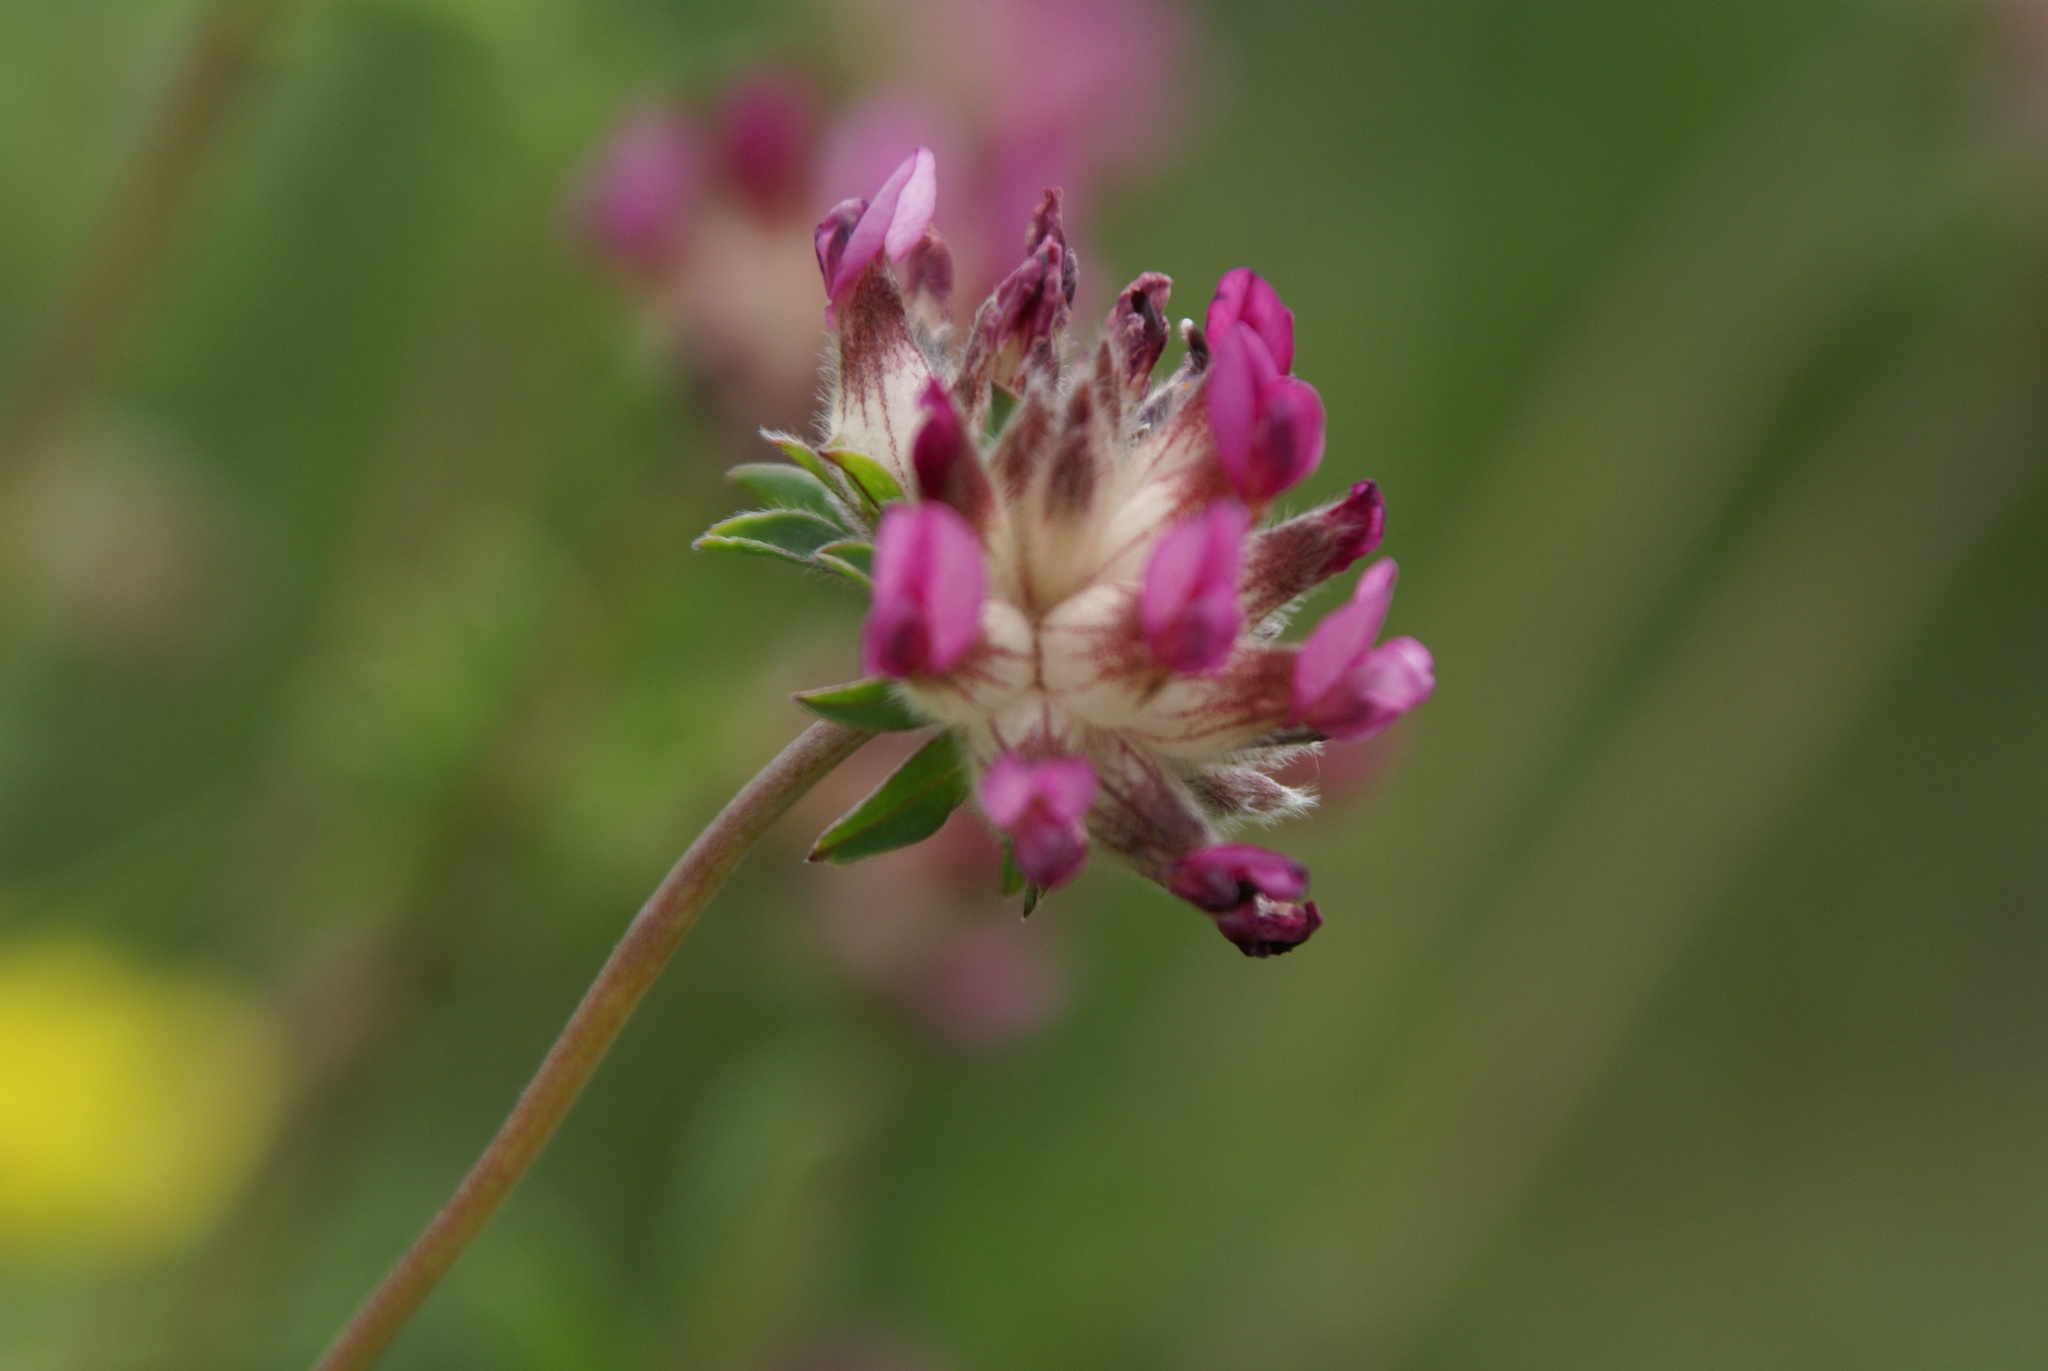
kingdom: Plantae
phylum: Tracheophyta
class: Magnoliopsida
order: Fabales
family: Fabaceae
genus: Anthyllis
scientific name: Anthyllis vulneraria
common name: Kidney vetch
